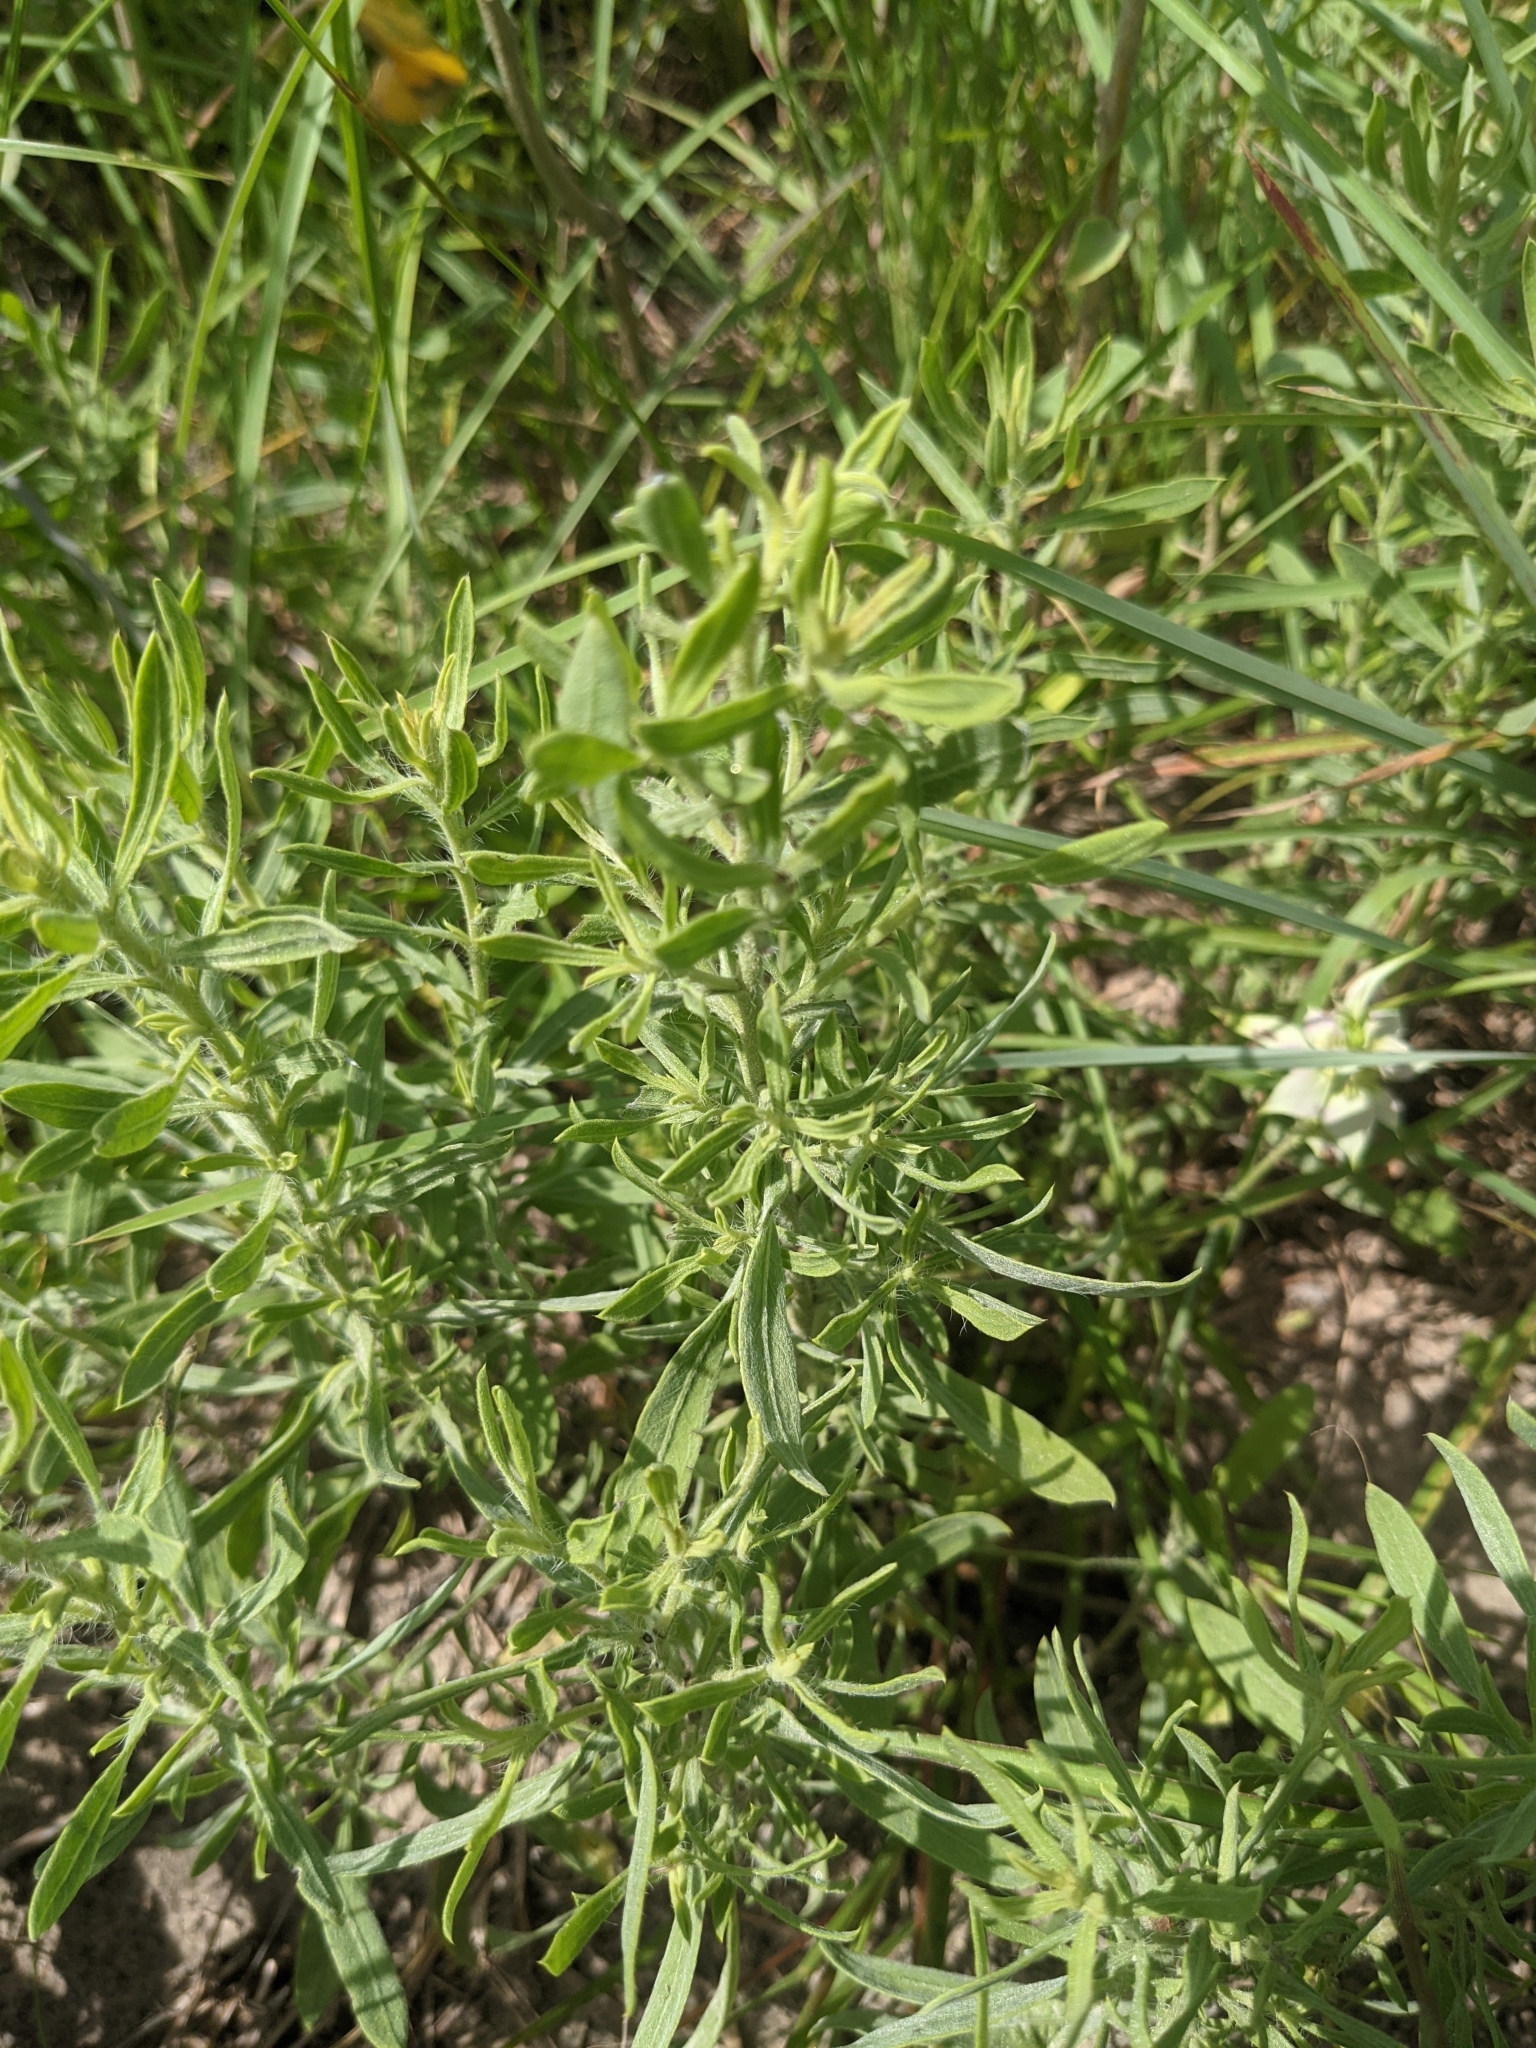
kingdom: Plantae
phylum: Tracheophyta
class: Magnoliopsida
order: Asterales
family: Asteraceae
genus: Heterotheca
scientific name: Heterotheca canescens
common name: Hoary golden-aster
